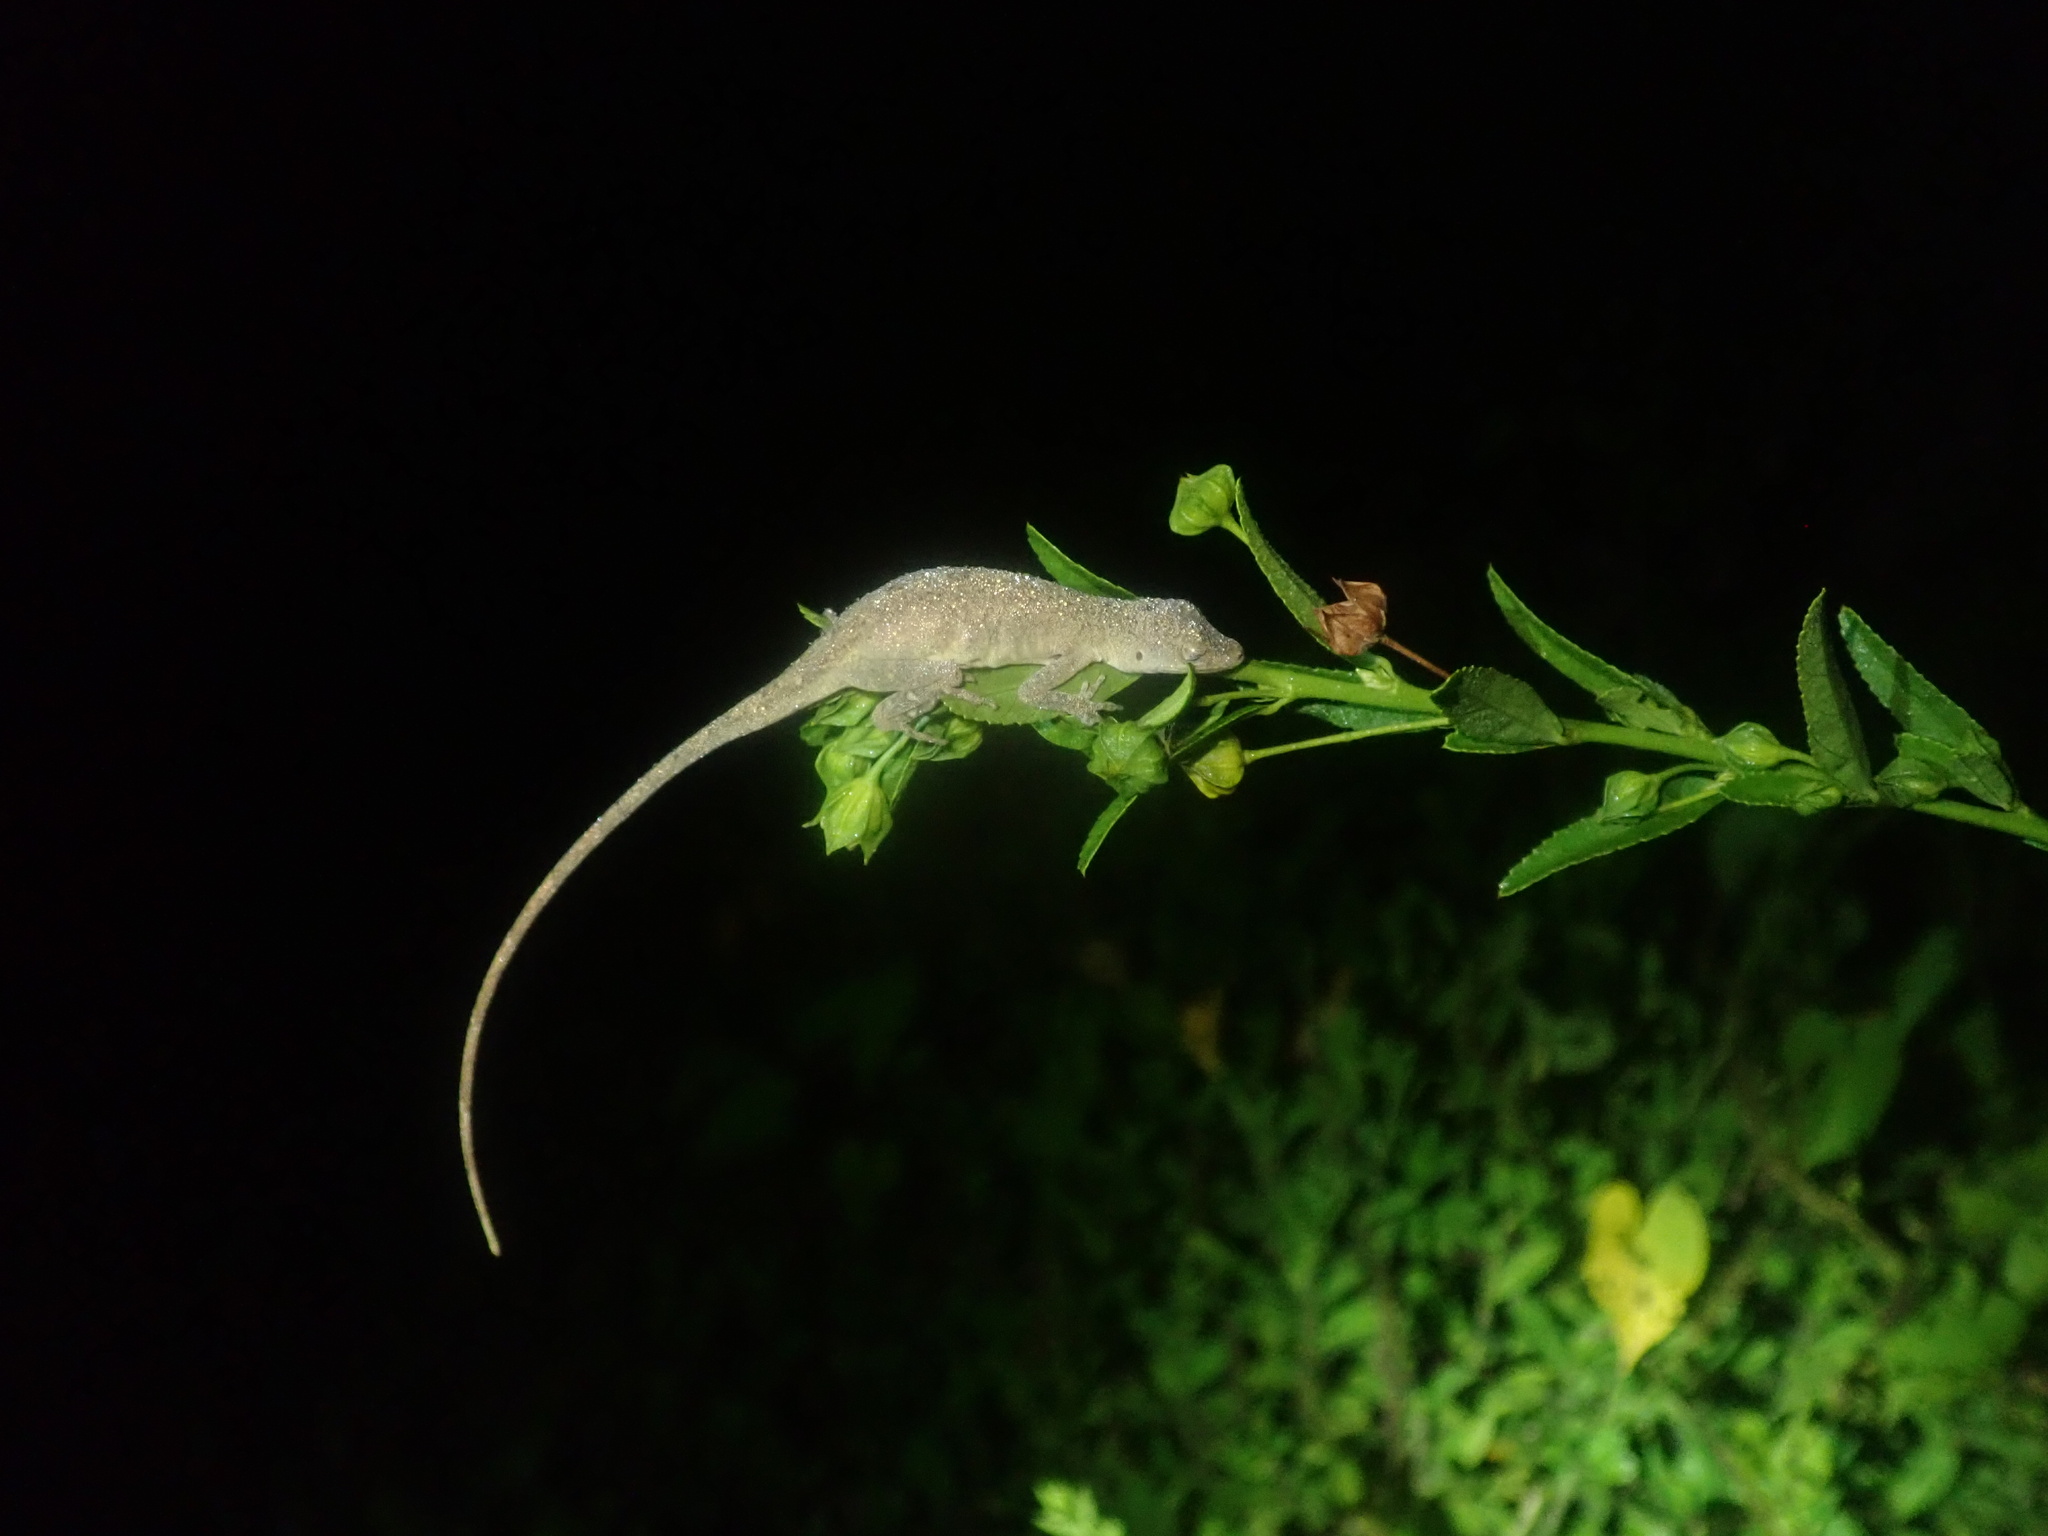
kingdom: Animalia
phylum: Chordata
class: Squamata
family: Dactyloidae
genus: Anolis
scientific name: Anolis fuscoauratus
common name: Brown-eared anole
